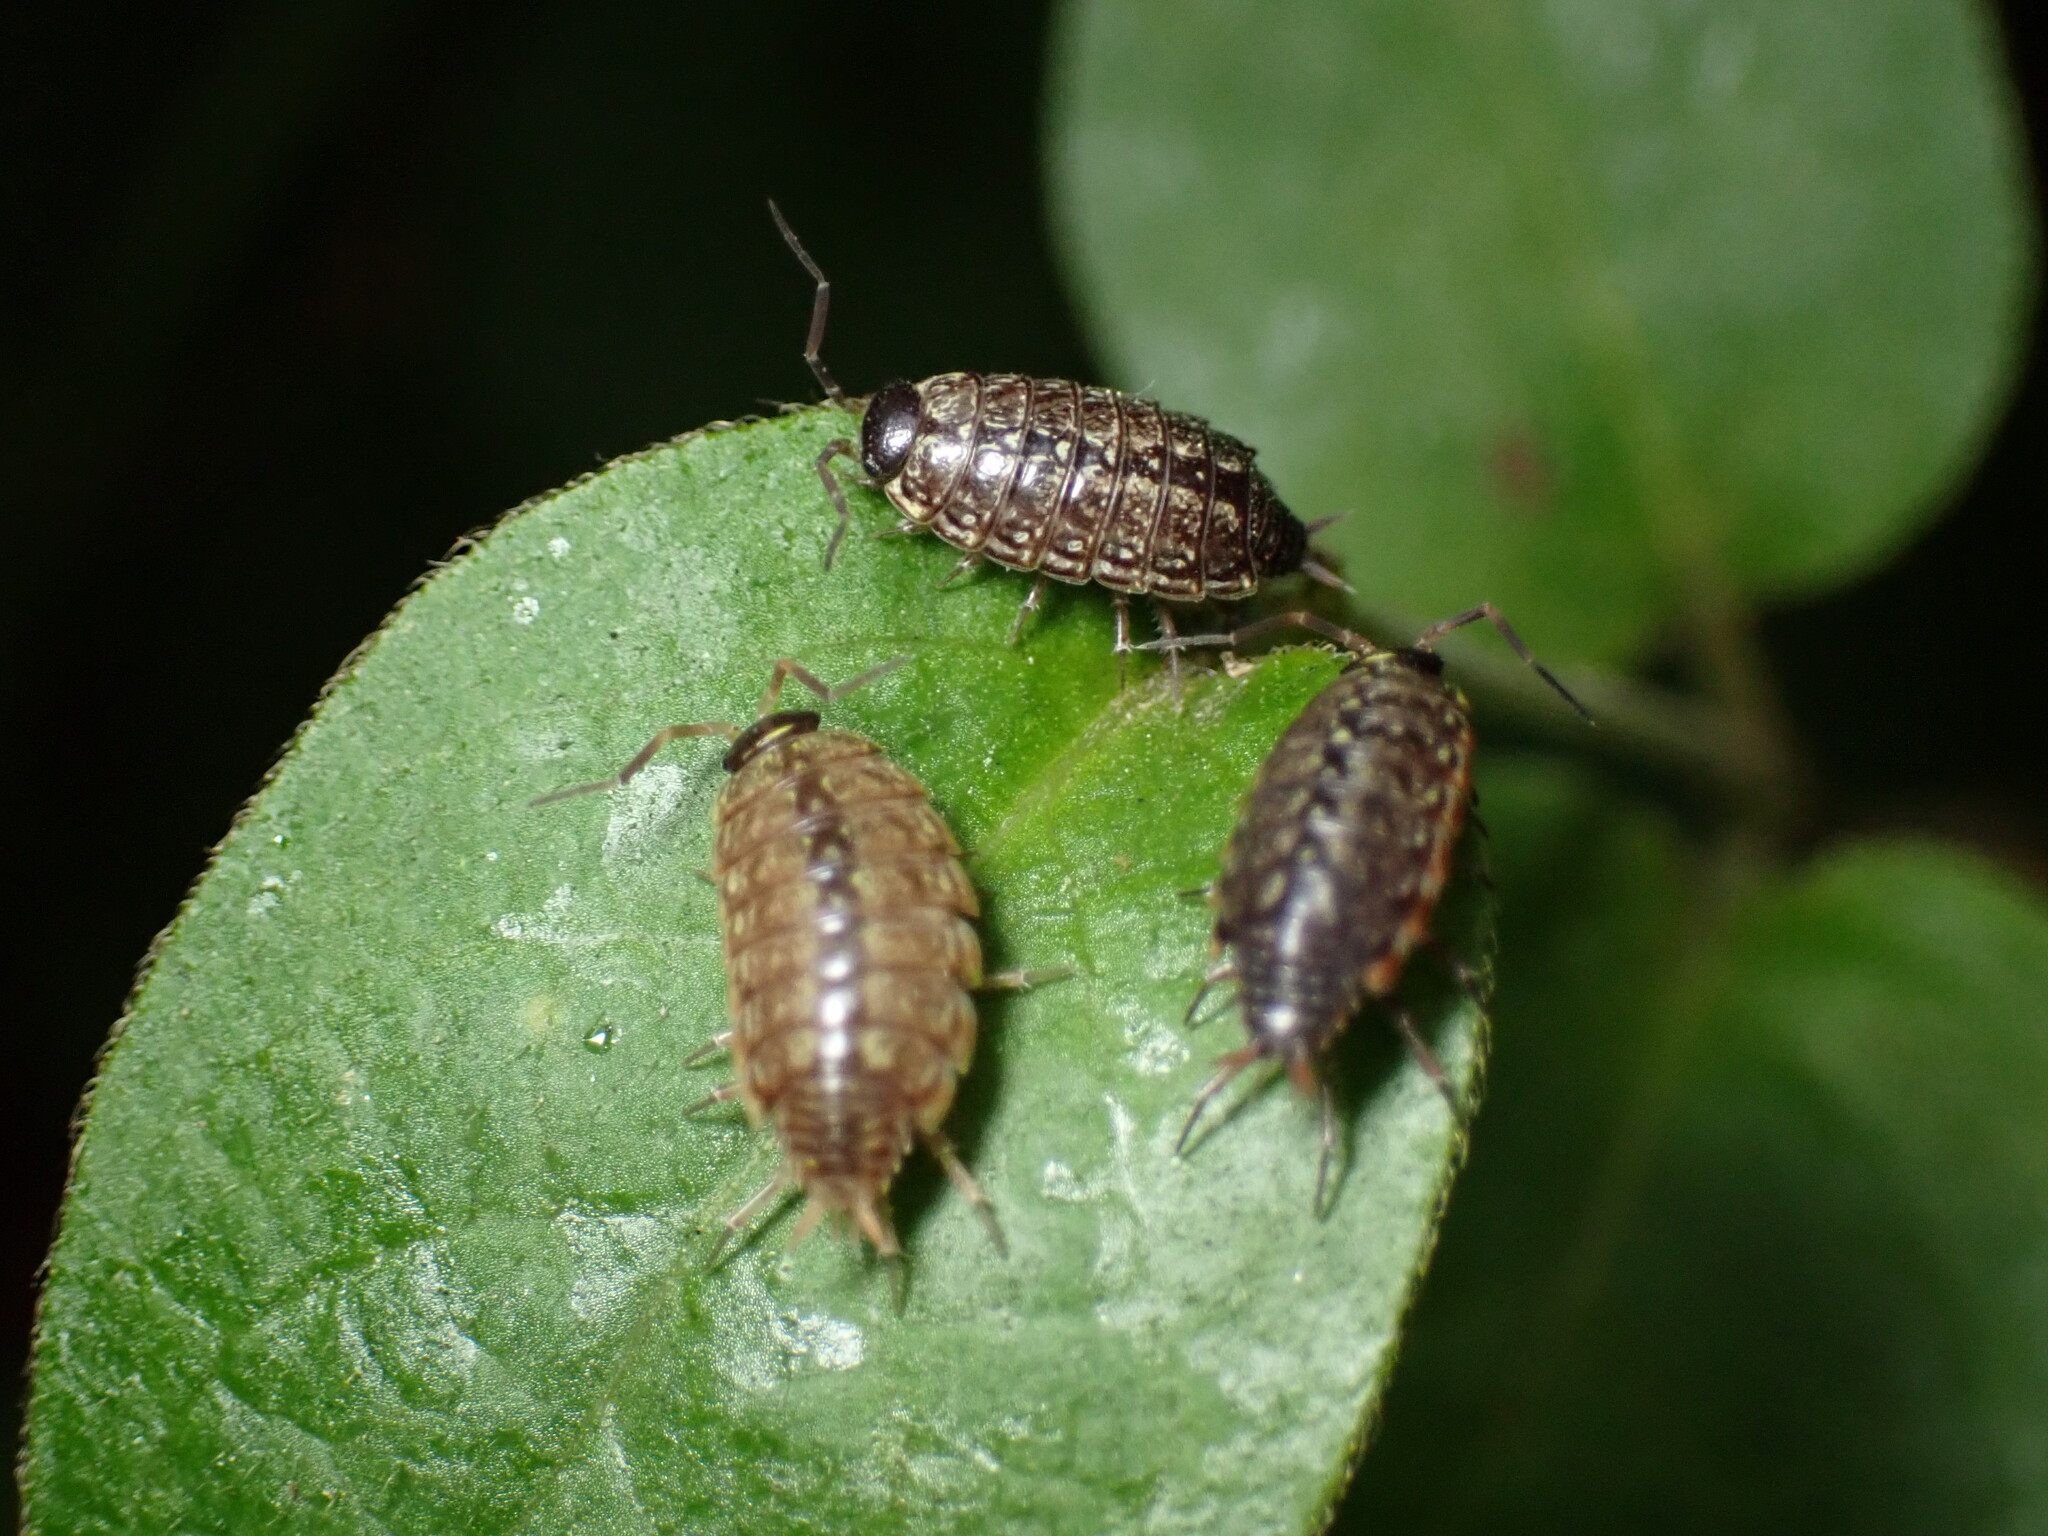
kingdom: Animalia
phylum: Arthropoda
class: Malacostraca
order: Isopoda
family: Philosciidae
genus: Philoscia
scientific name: Philoscia muscorum
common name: Common striped woodlouse
